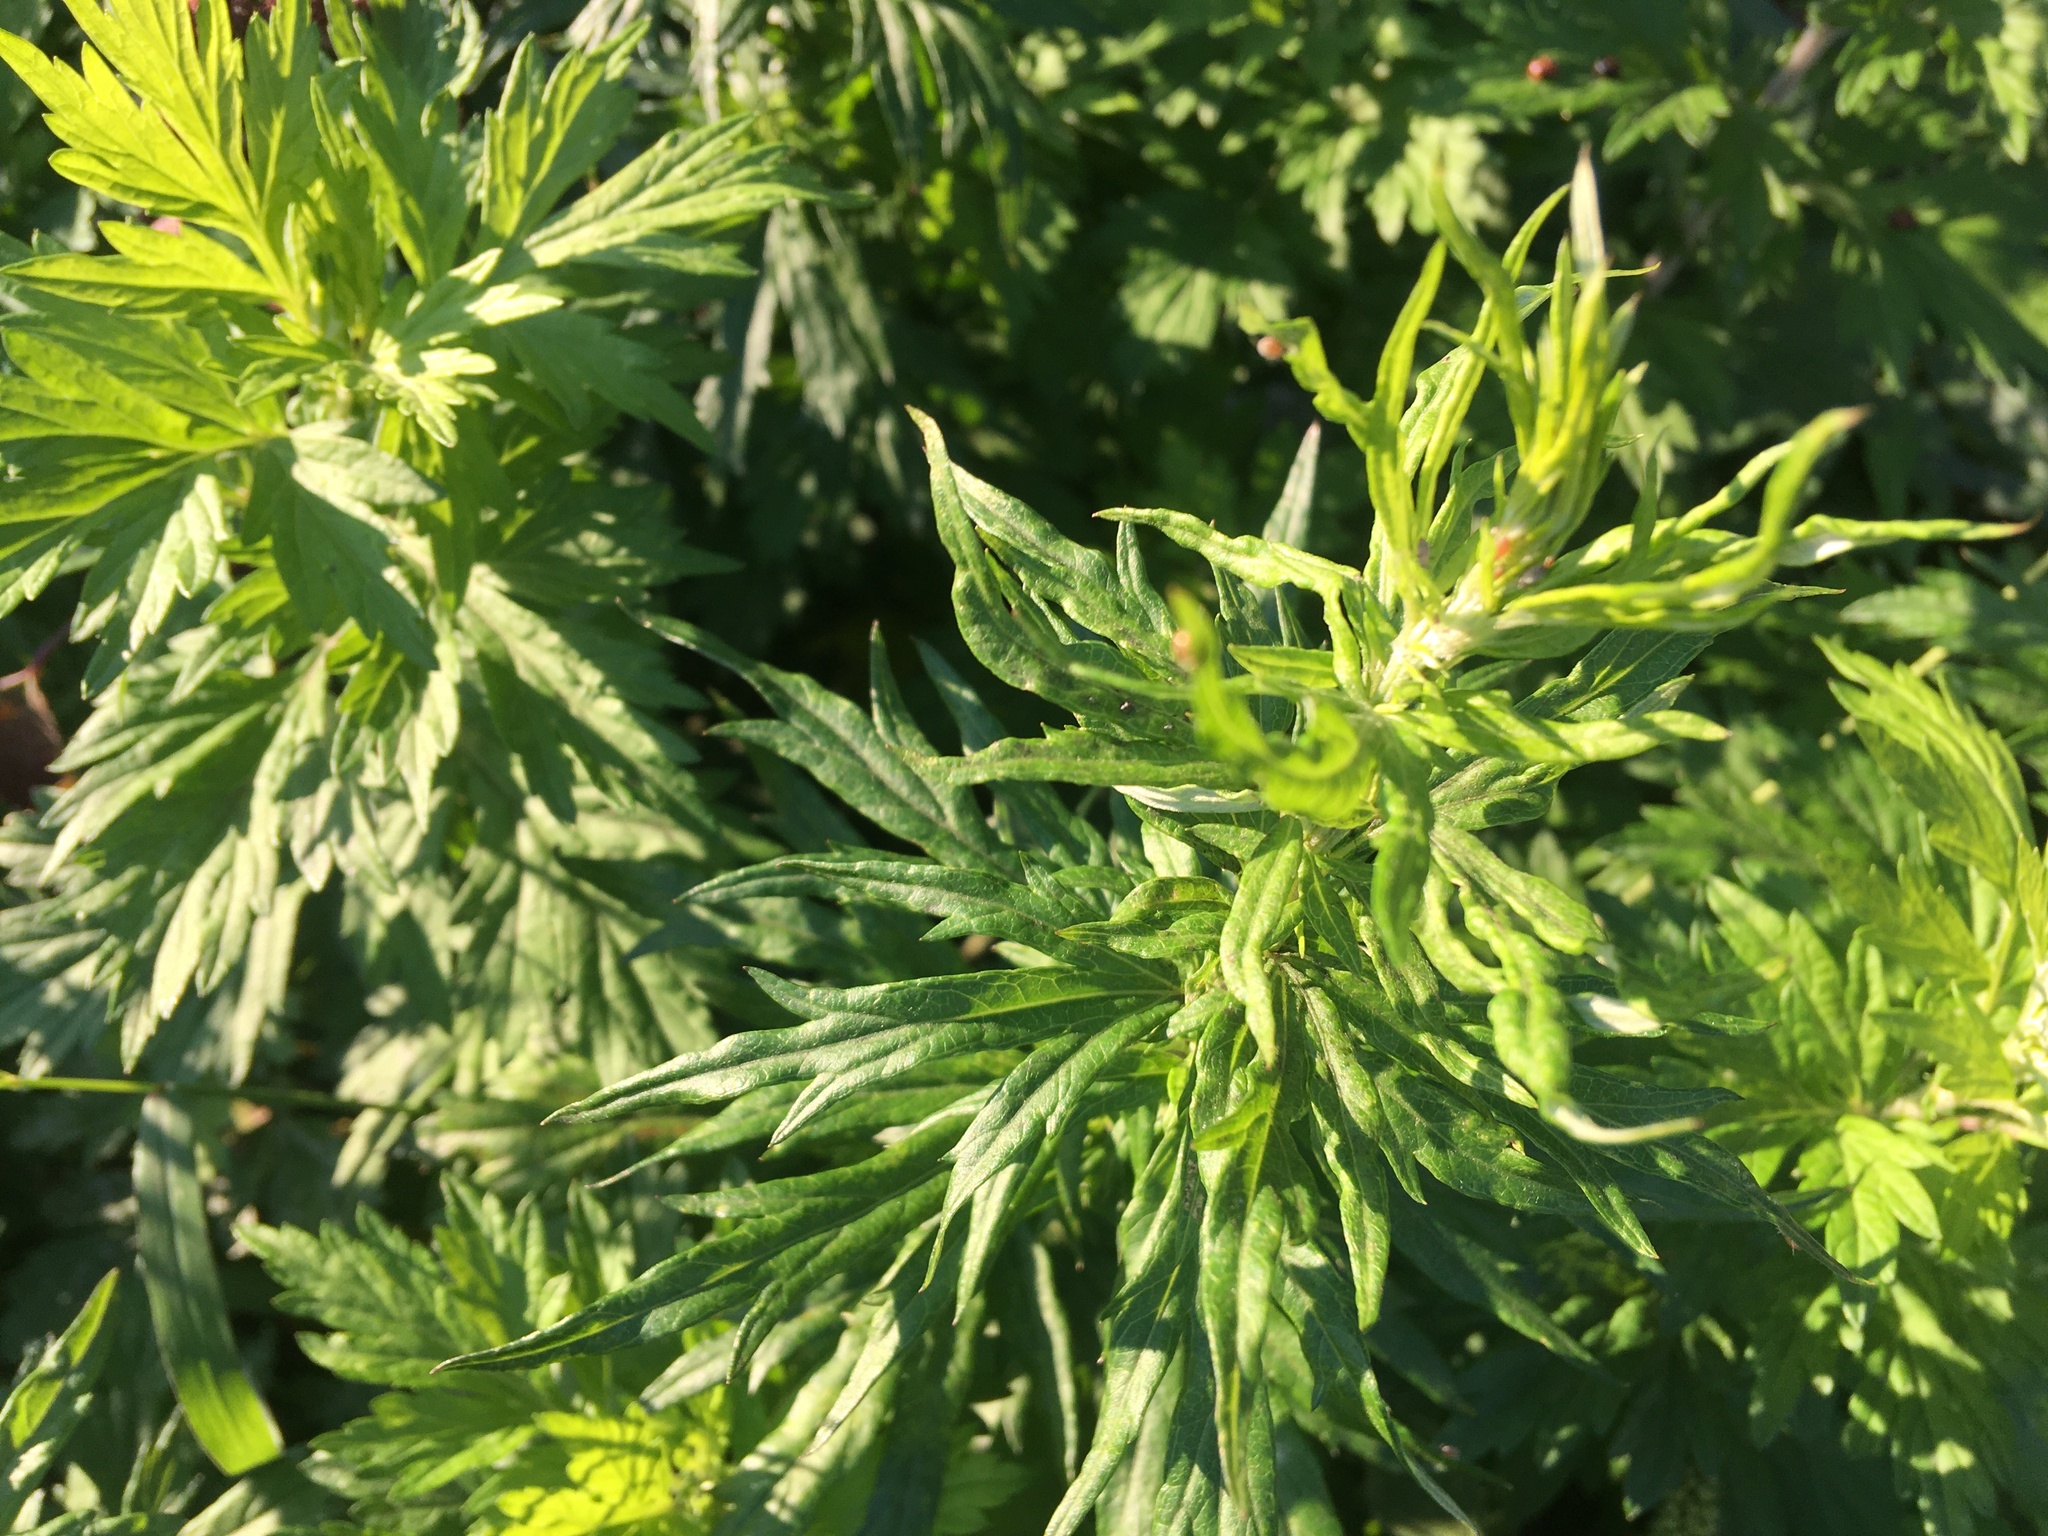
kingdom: Plantae
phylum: Tracheophyta
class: Magnoliopsida
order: Asterales
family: Asteraceae
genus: Artemisia
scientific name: Artemisia vulgaris
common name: Mugwort
